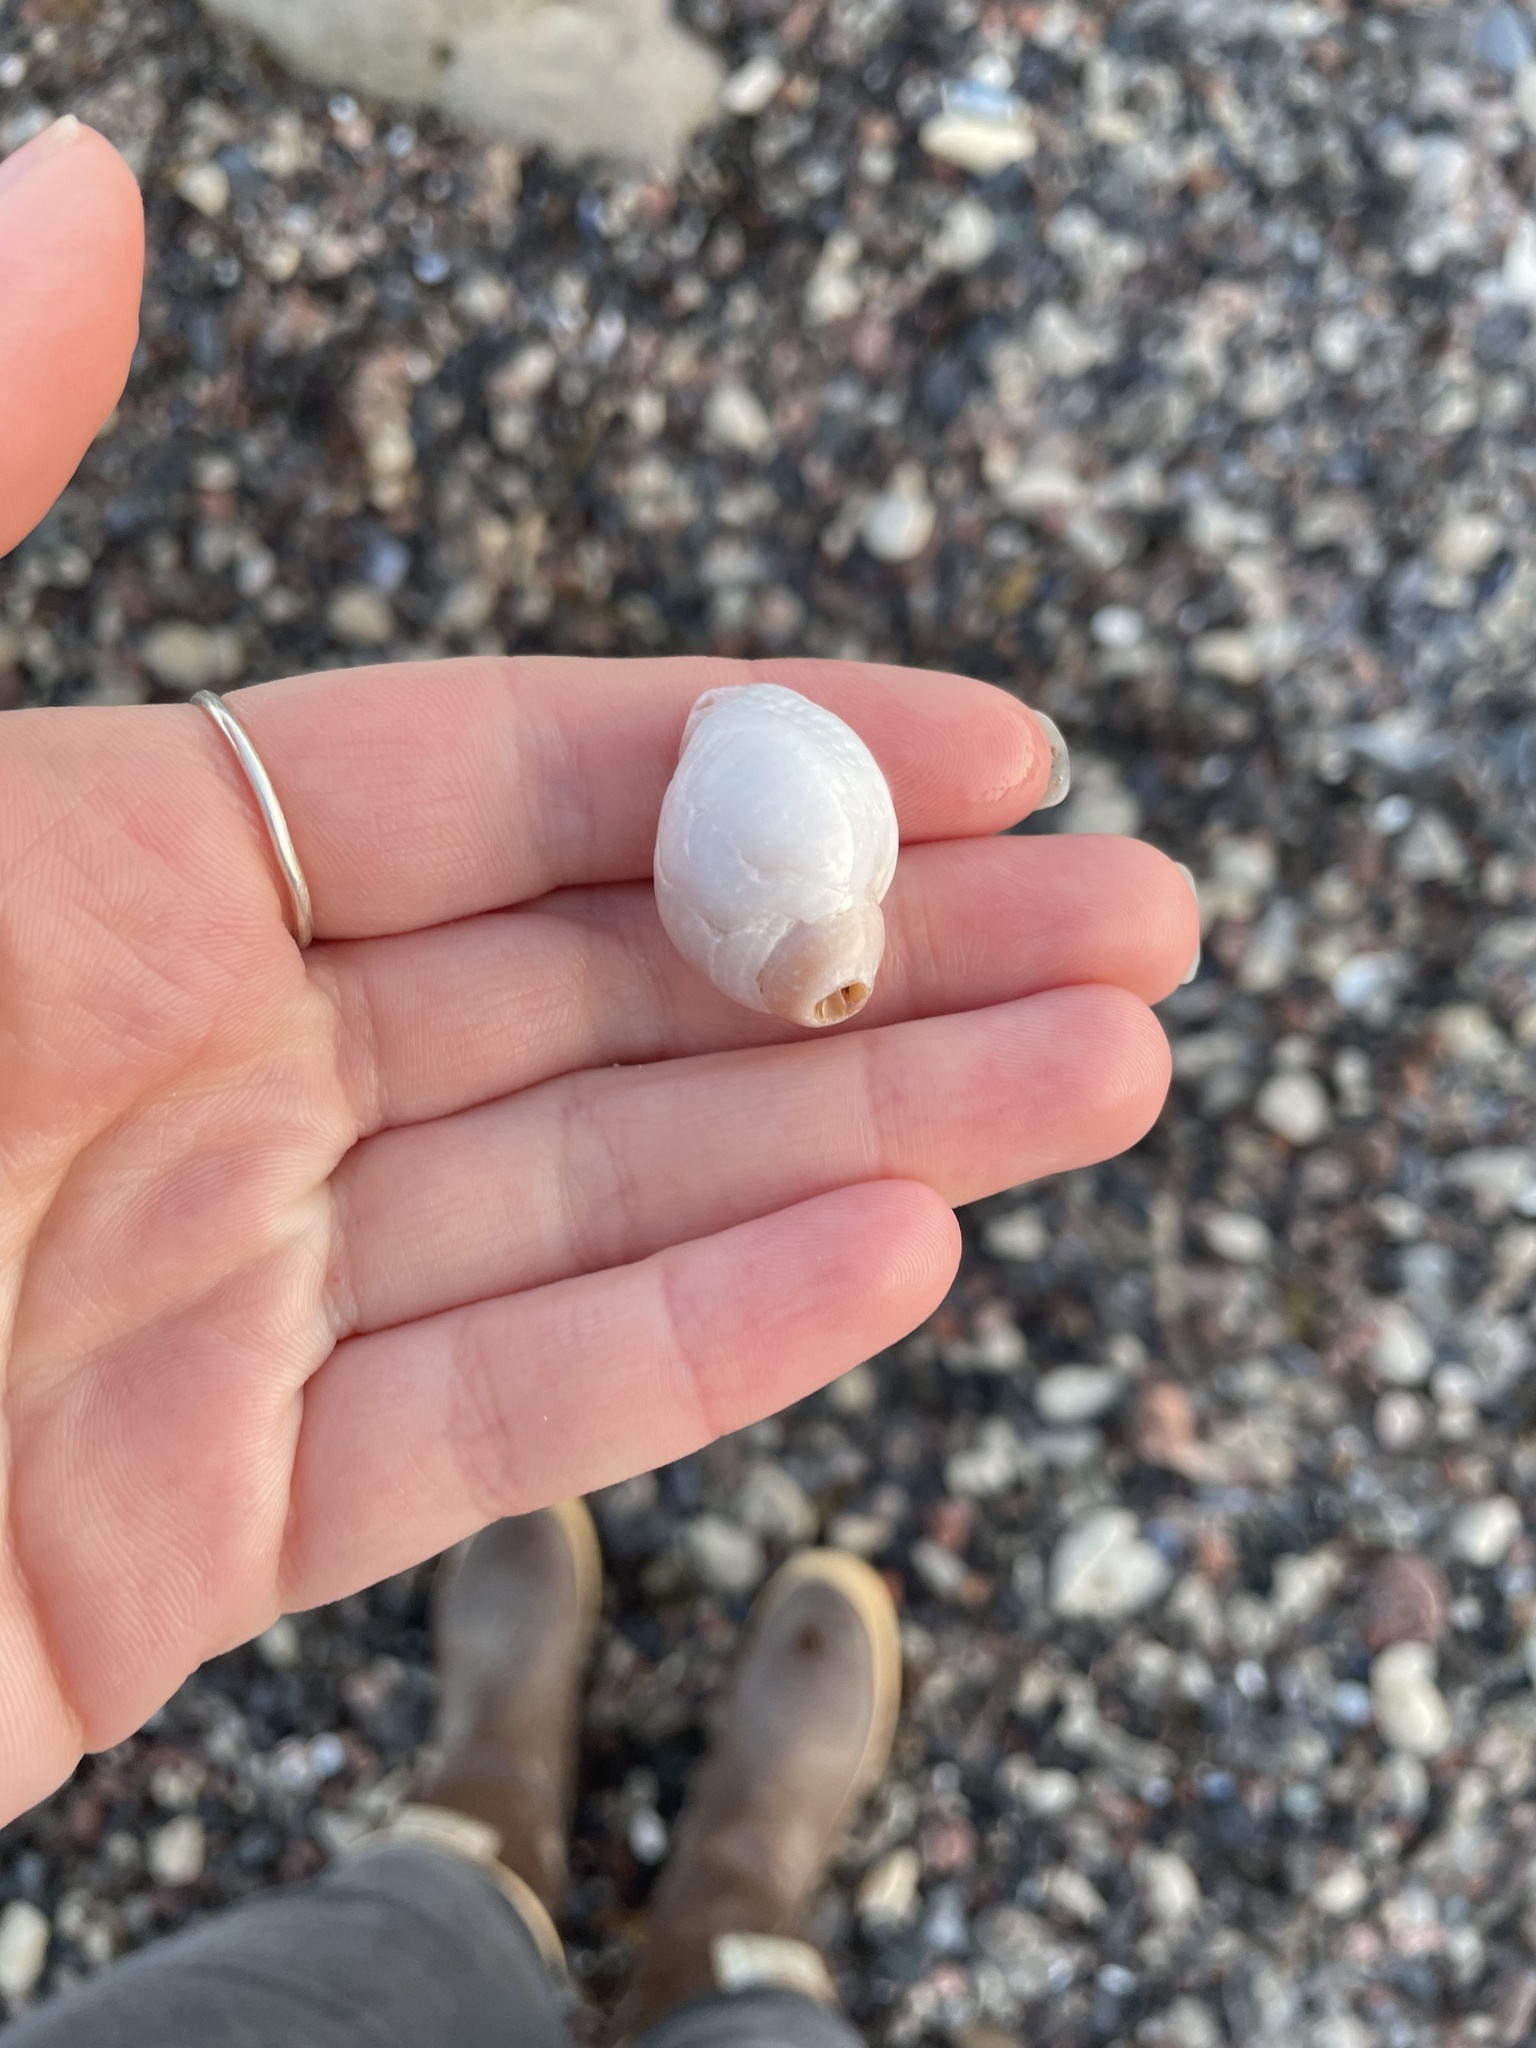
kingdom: Animalia
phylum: Mollusca
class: Gastropoda
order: Neogastropoda
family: Muricidae
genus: Nucella
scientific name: Nucella lapillus
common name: Dog whelk
